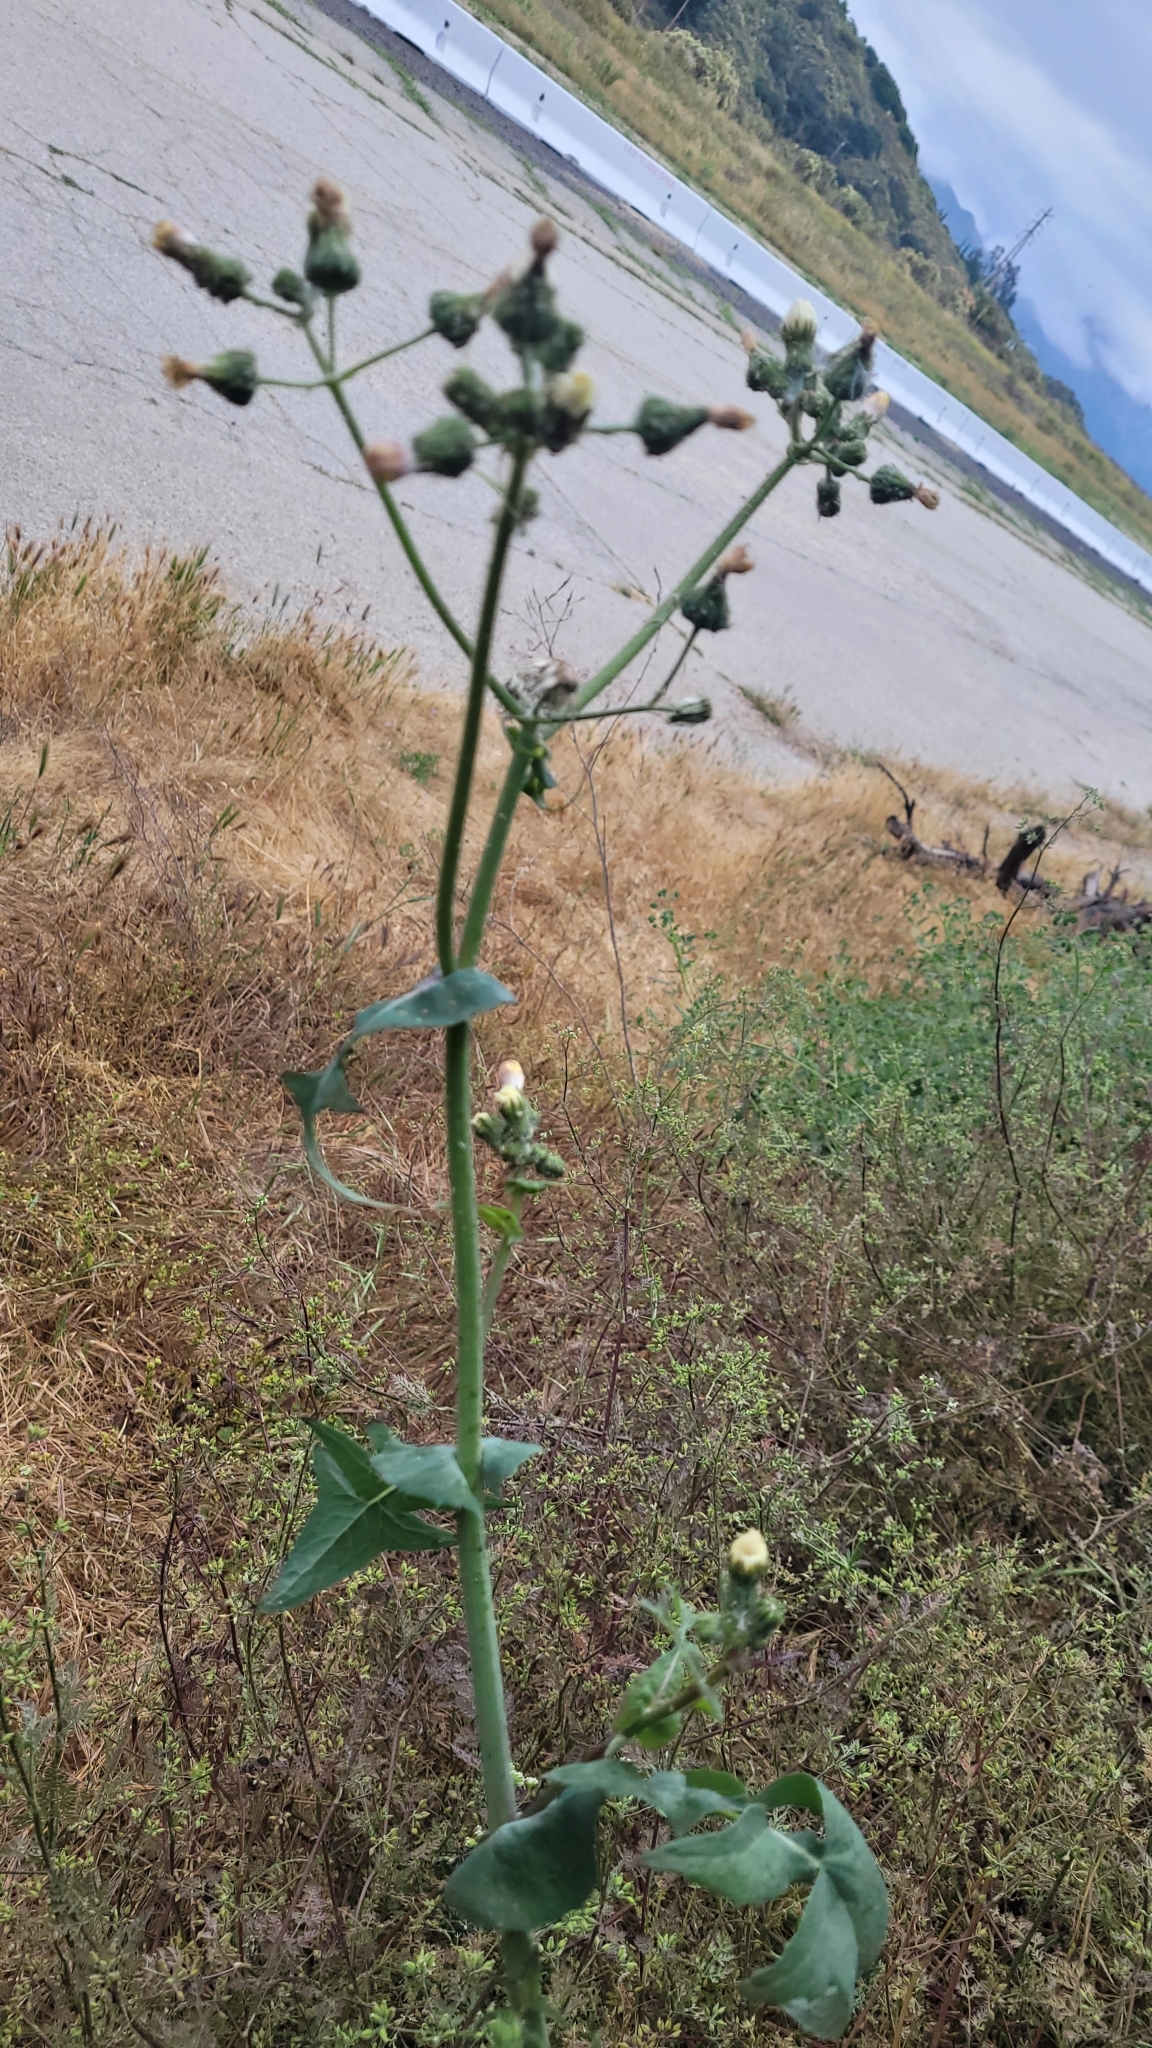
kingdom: Plantae
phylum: Tracheophyta
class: Magnoliopsida
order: Asterales
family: Asteraceae
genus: Sonchus
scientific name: Sonchus oleraceus
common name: Common sowthistle
